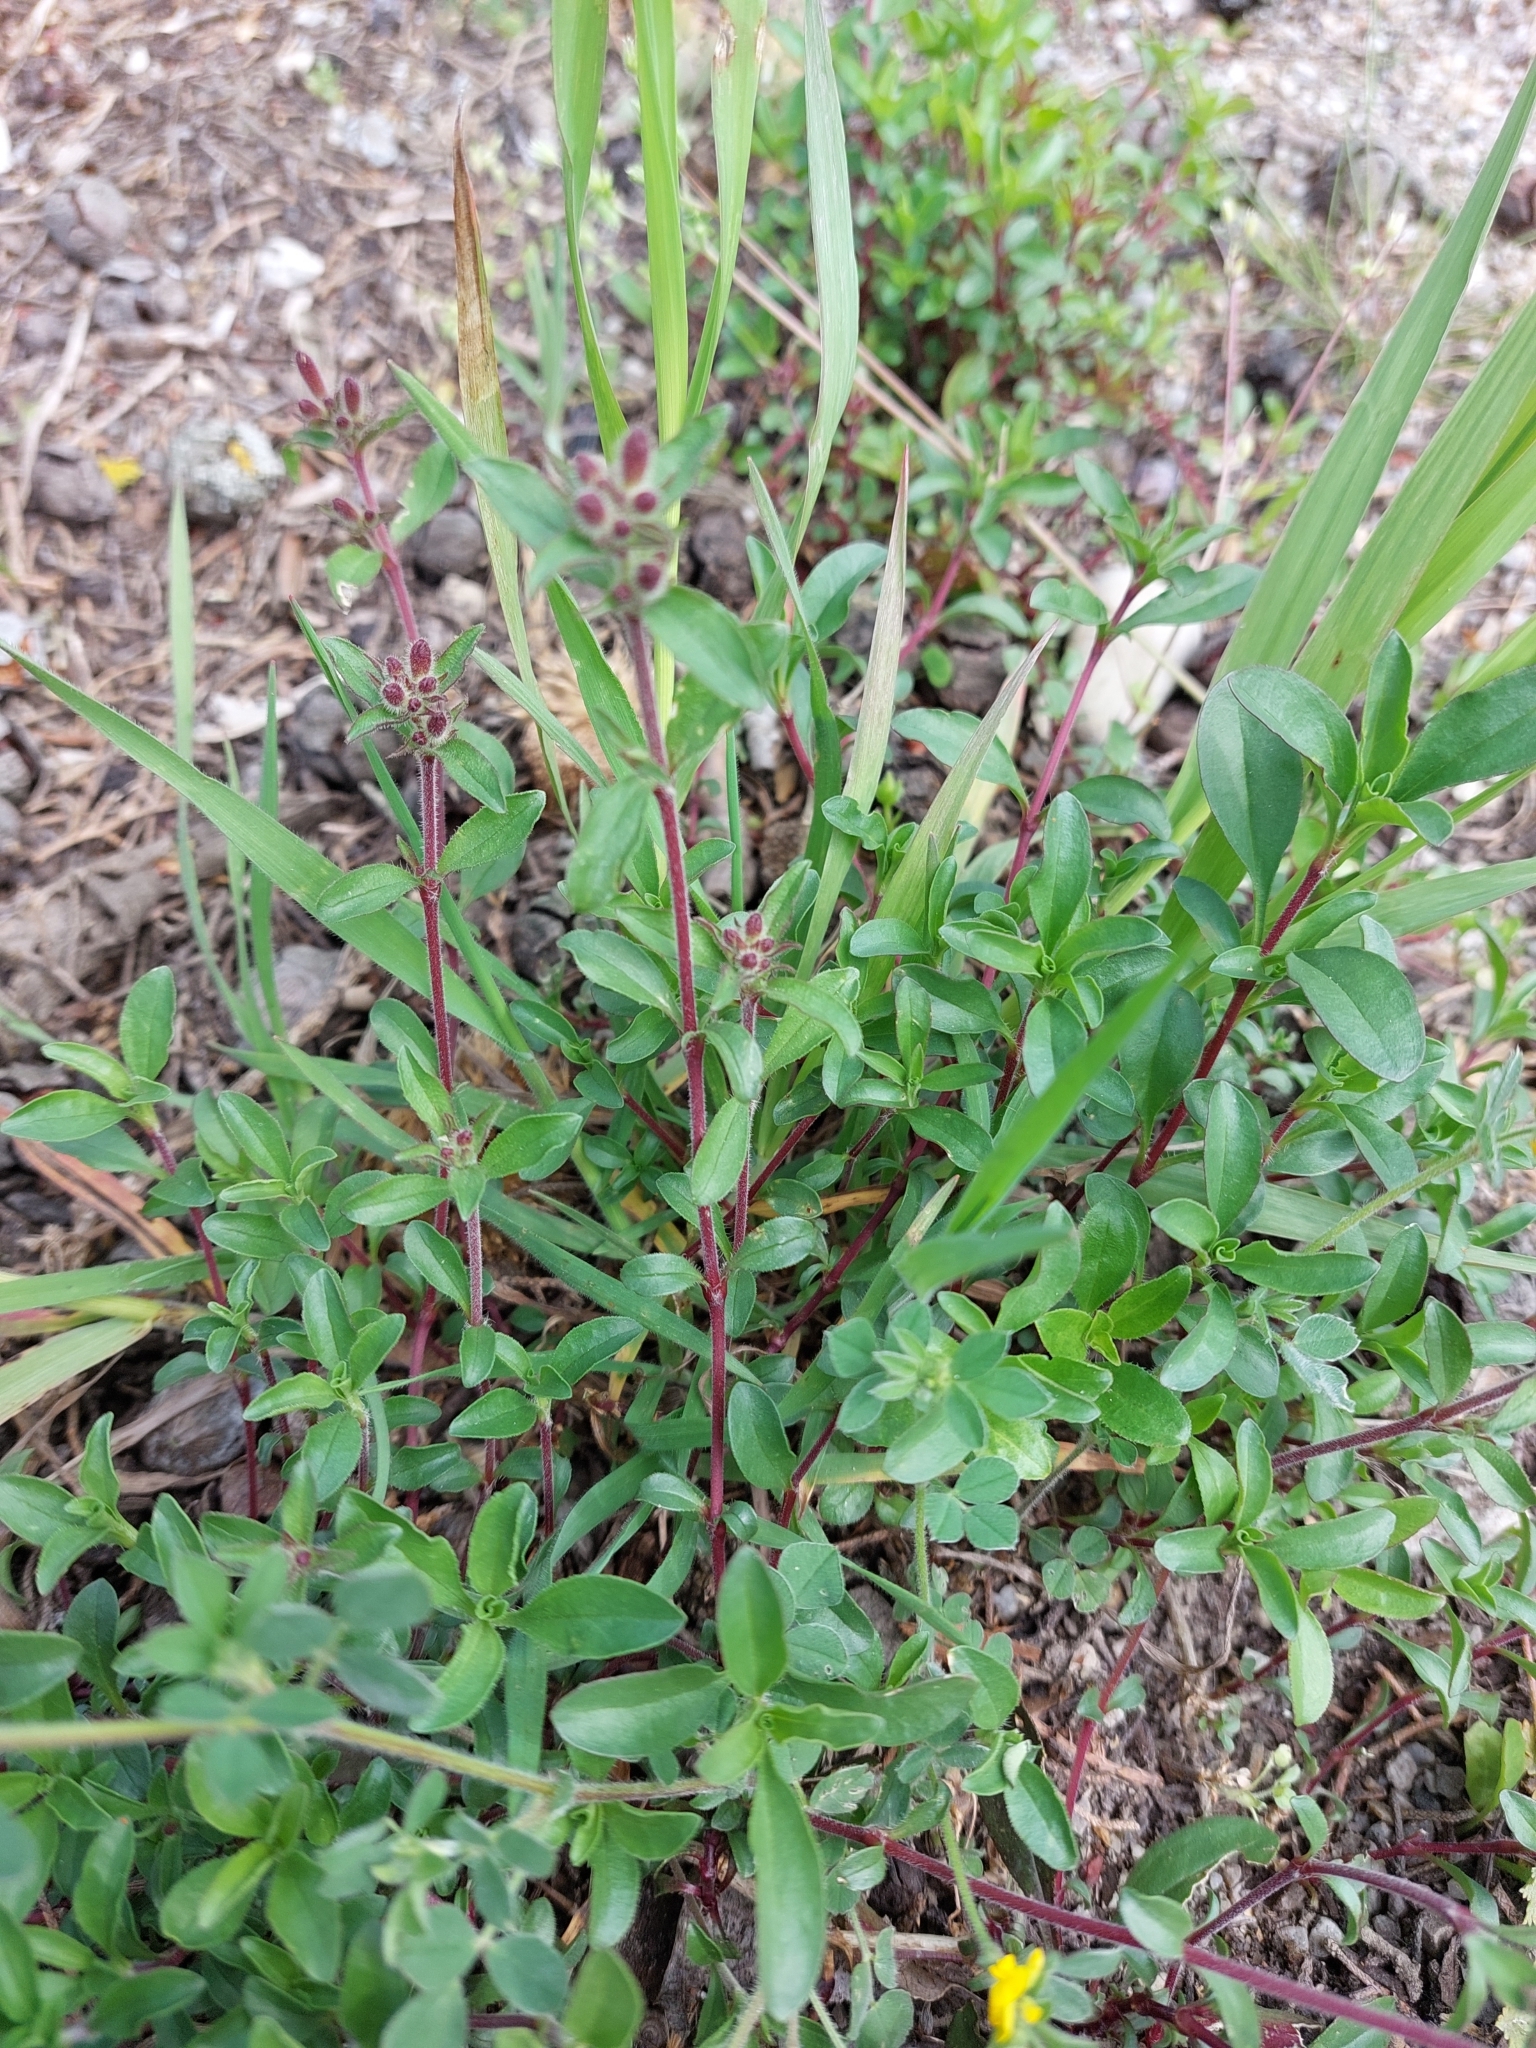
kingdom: Plantae
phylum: Tracheophyta
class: Magnoliopsida
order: Caryophyllales
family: Caryophyllaceae
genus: Saponaria
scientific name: Saponaria ocymoides
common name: Rock soapwort
